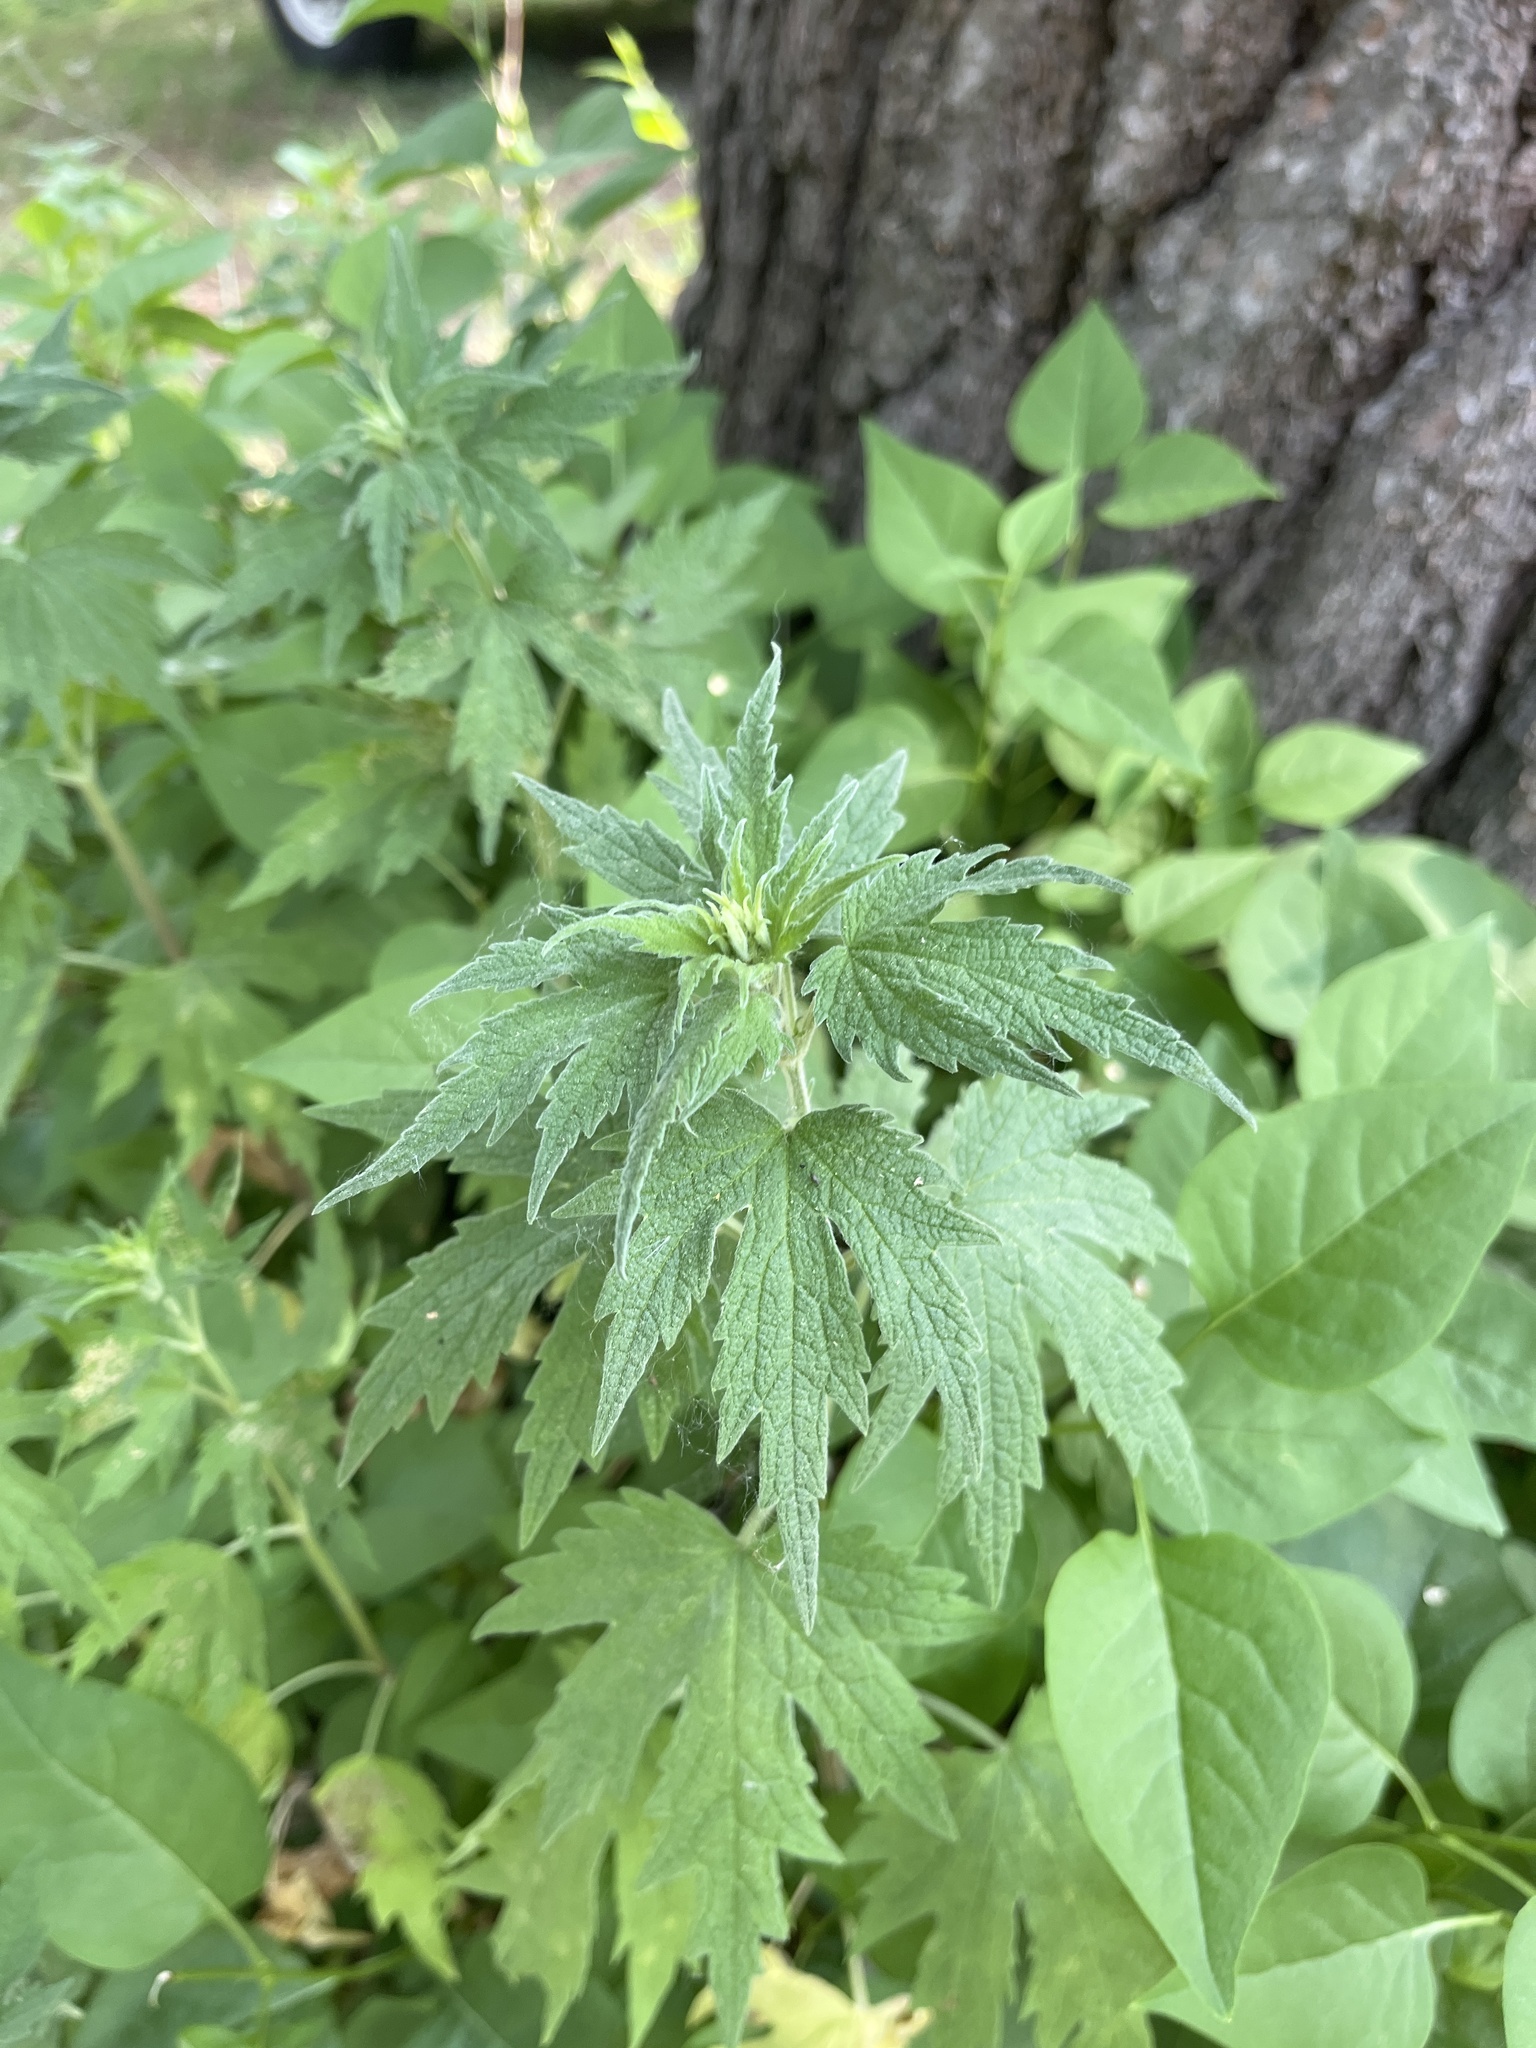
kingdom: Plantae
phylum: Tracheophyta
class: Magnoliopsida
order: Lamiales
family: Lamiaceae
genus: Leonurus
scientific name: Leonurus cardiaca
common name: Motherwort
